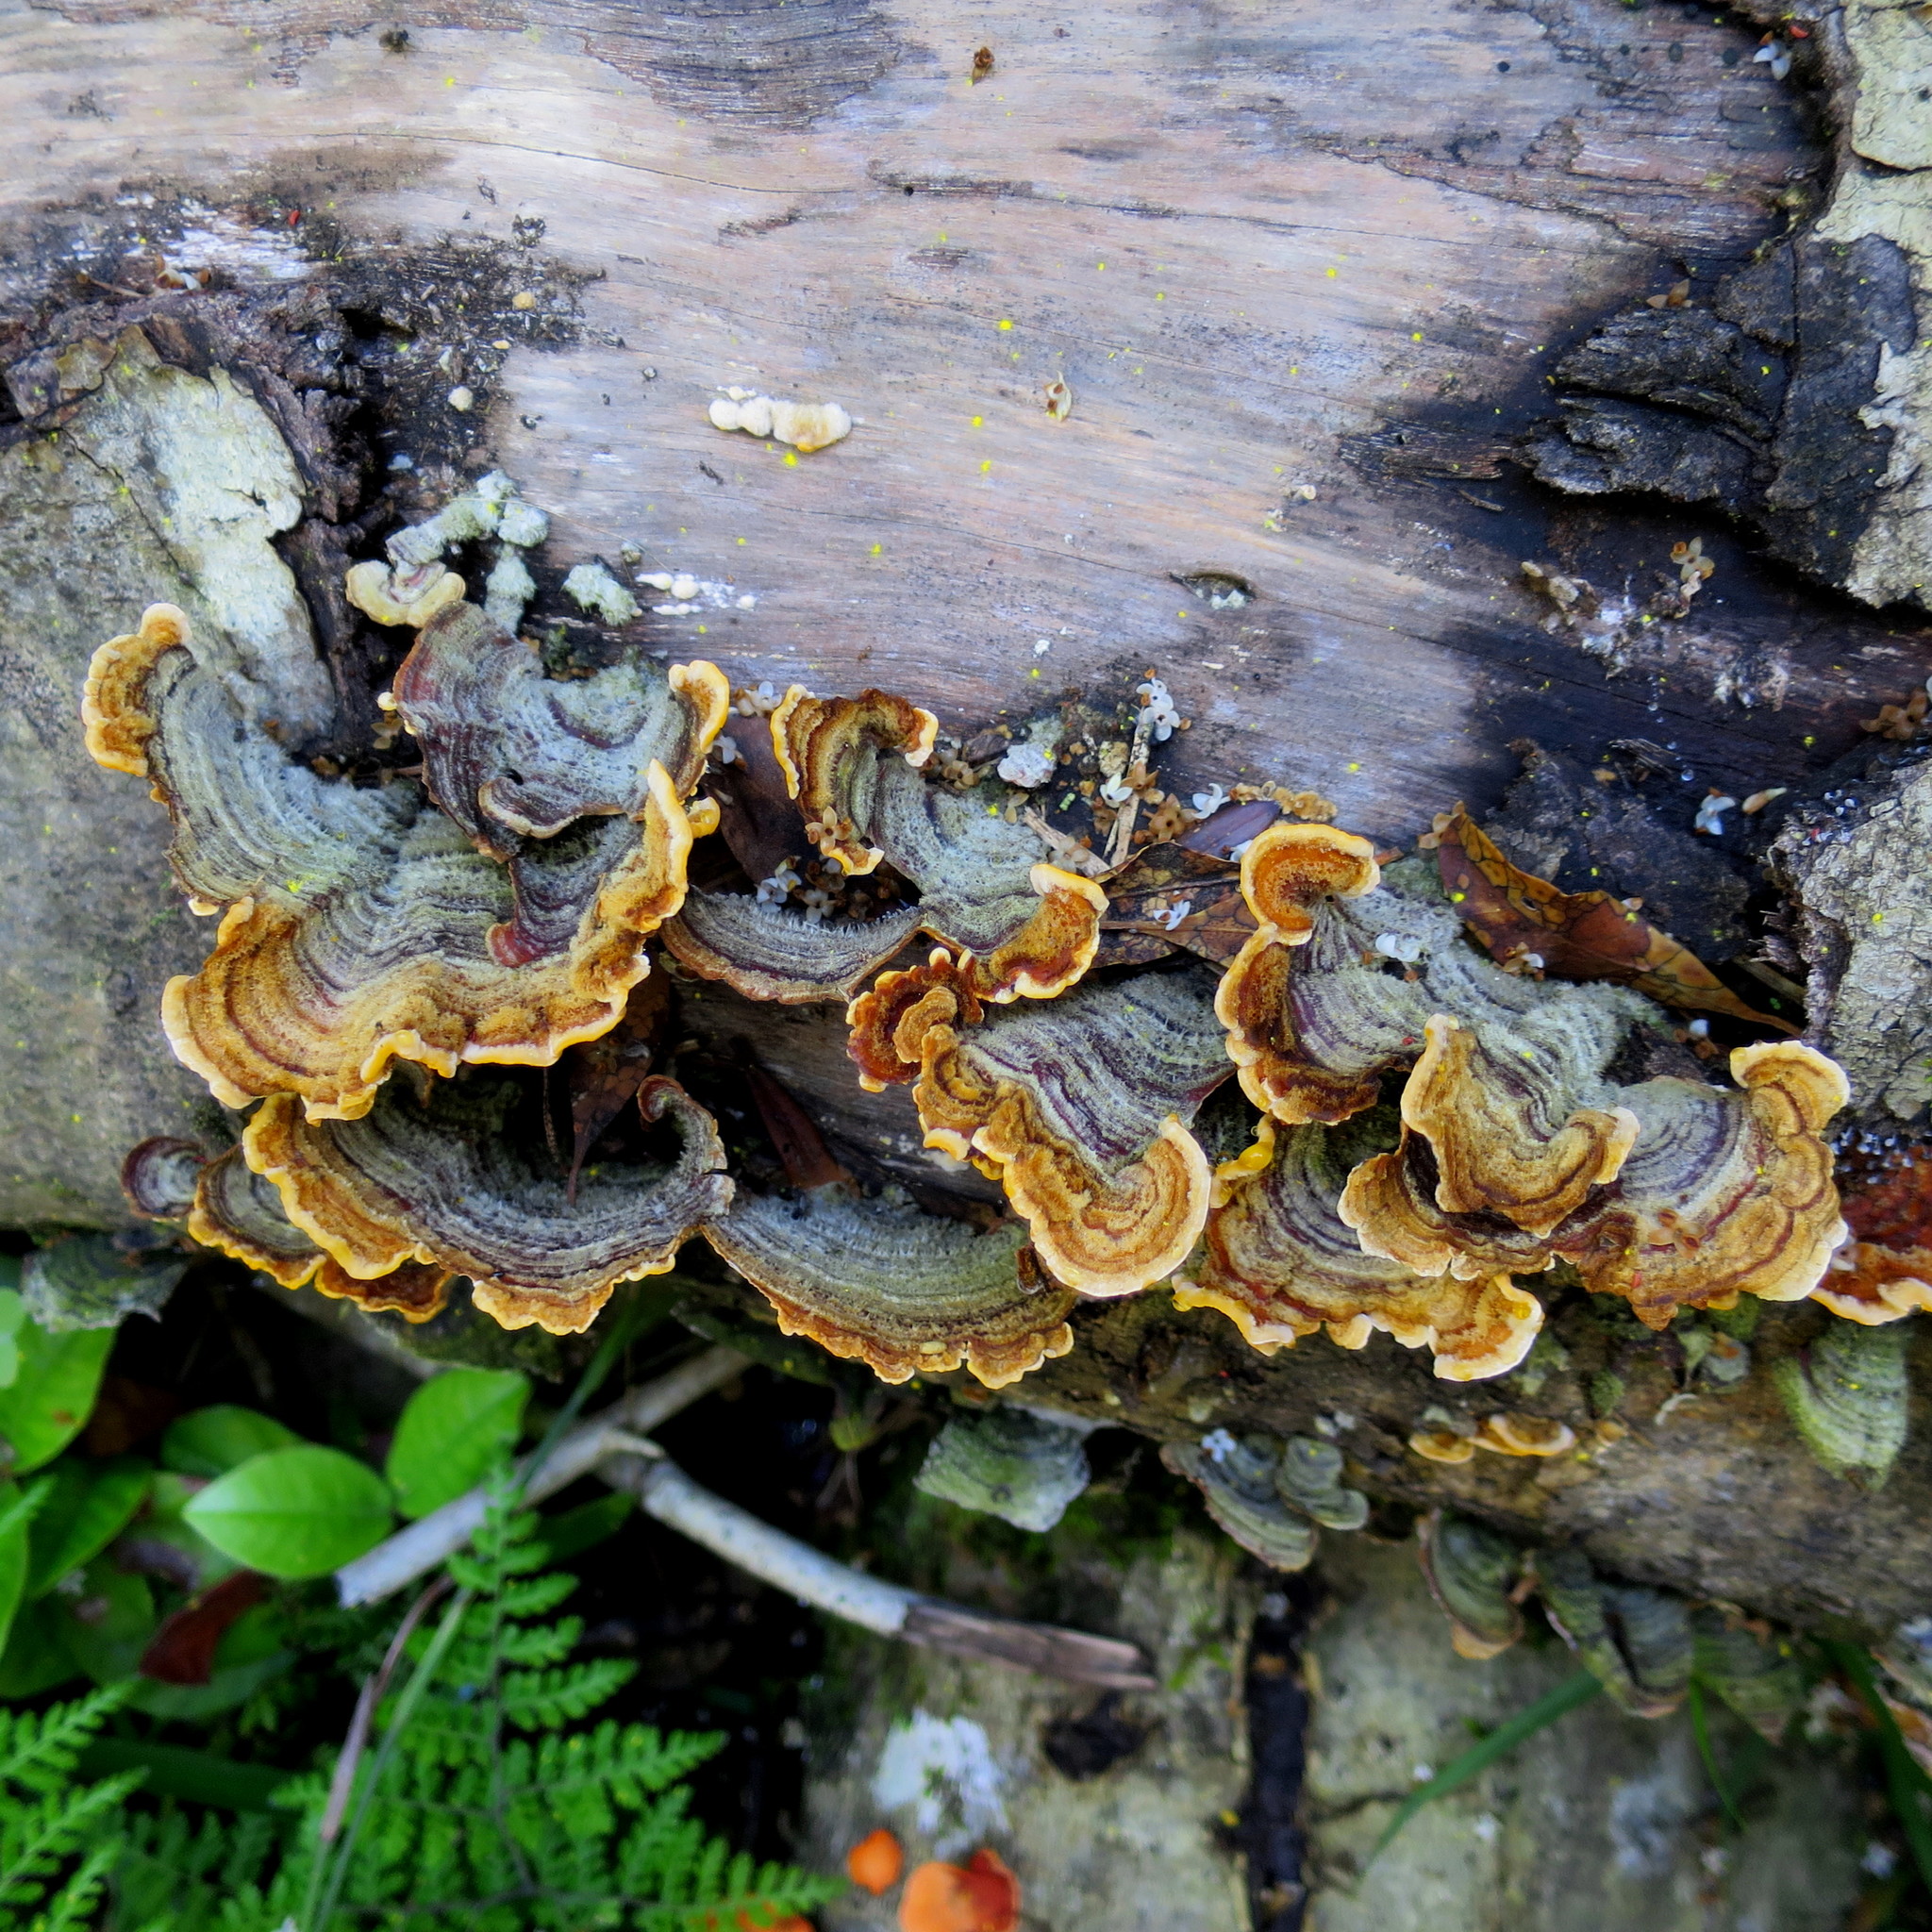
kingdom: Fungi
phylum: Basidiomycota
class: Agaricomycetes
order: Polyporales
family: Polyporaceae
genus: Trametes
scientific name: Trametes versicolor
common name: Turkeytail
